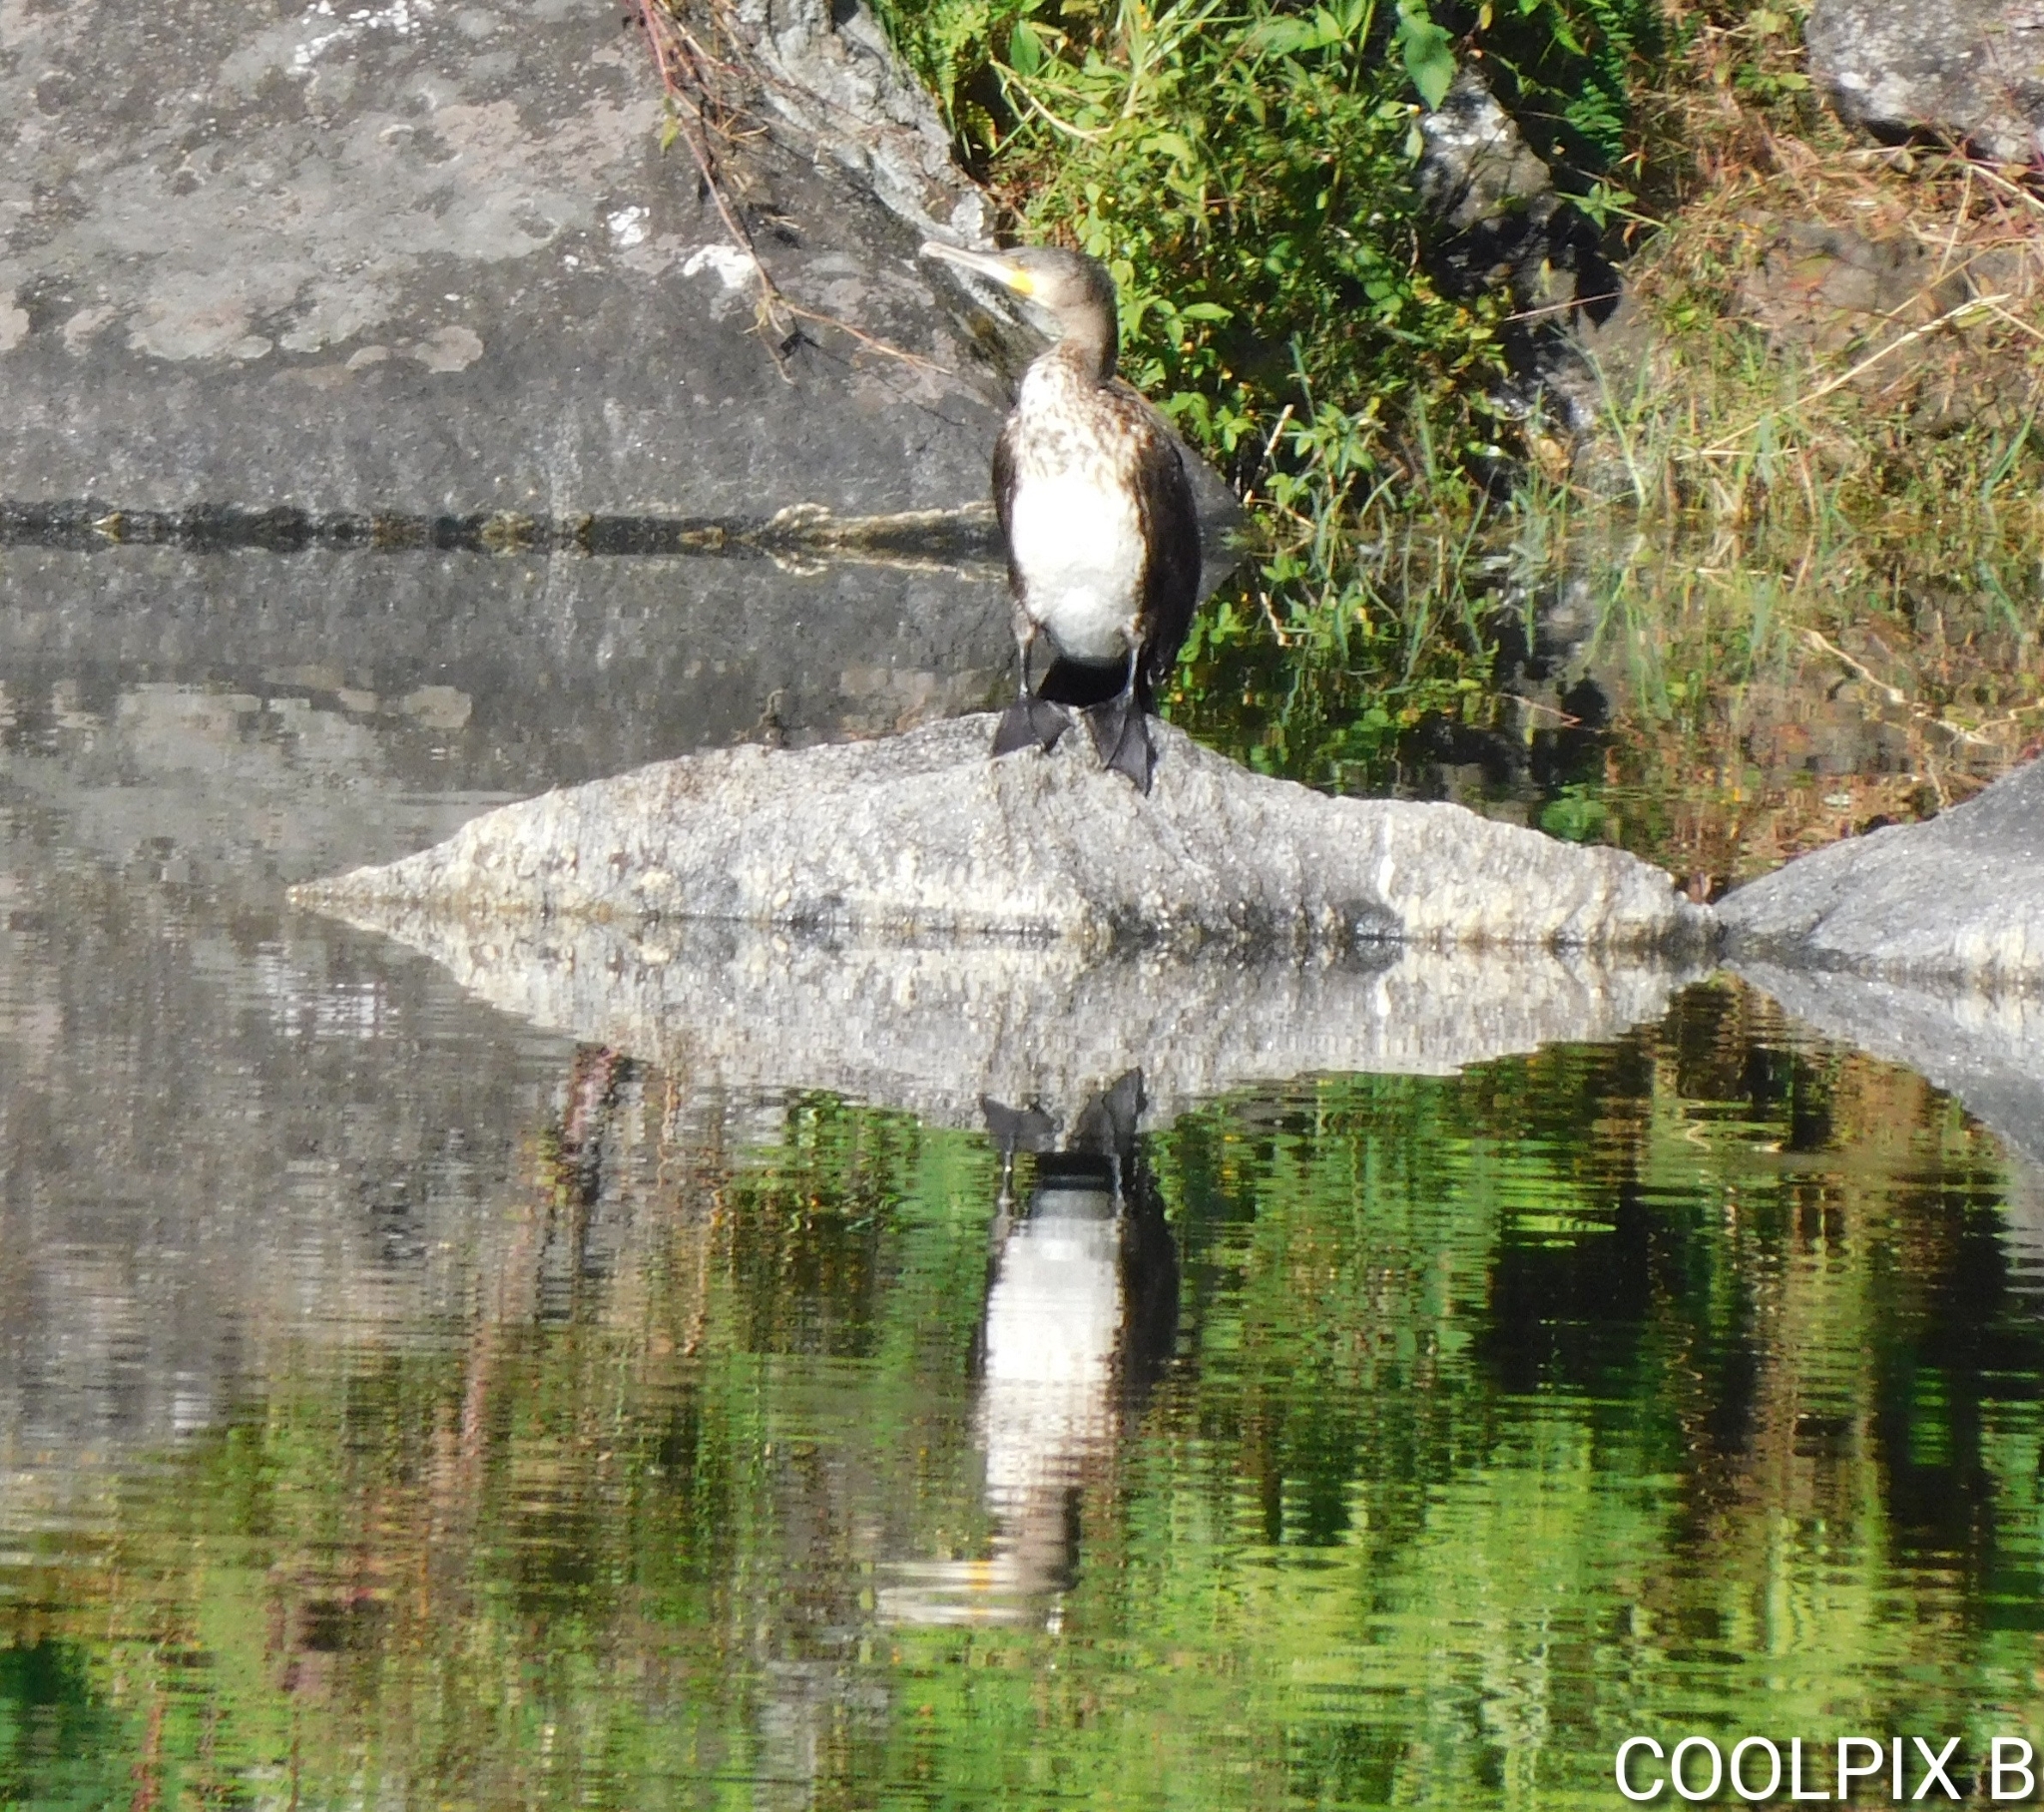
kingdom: Animalia
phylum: Chordata
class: Aves
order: Suliformes
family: Phalacrocoracidae
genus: Phalacrocorax
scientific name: Phalacrocorax carbo
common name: Great cormorant
